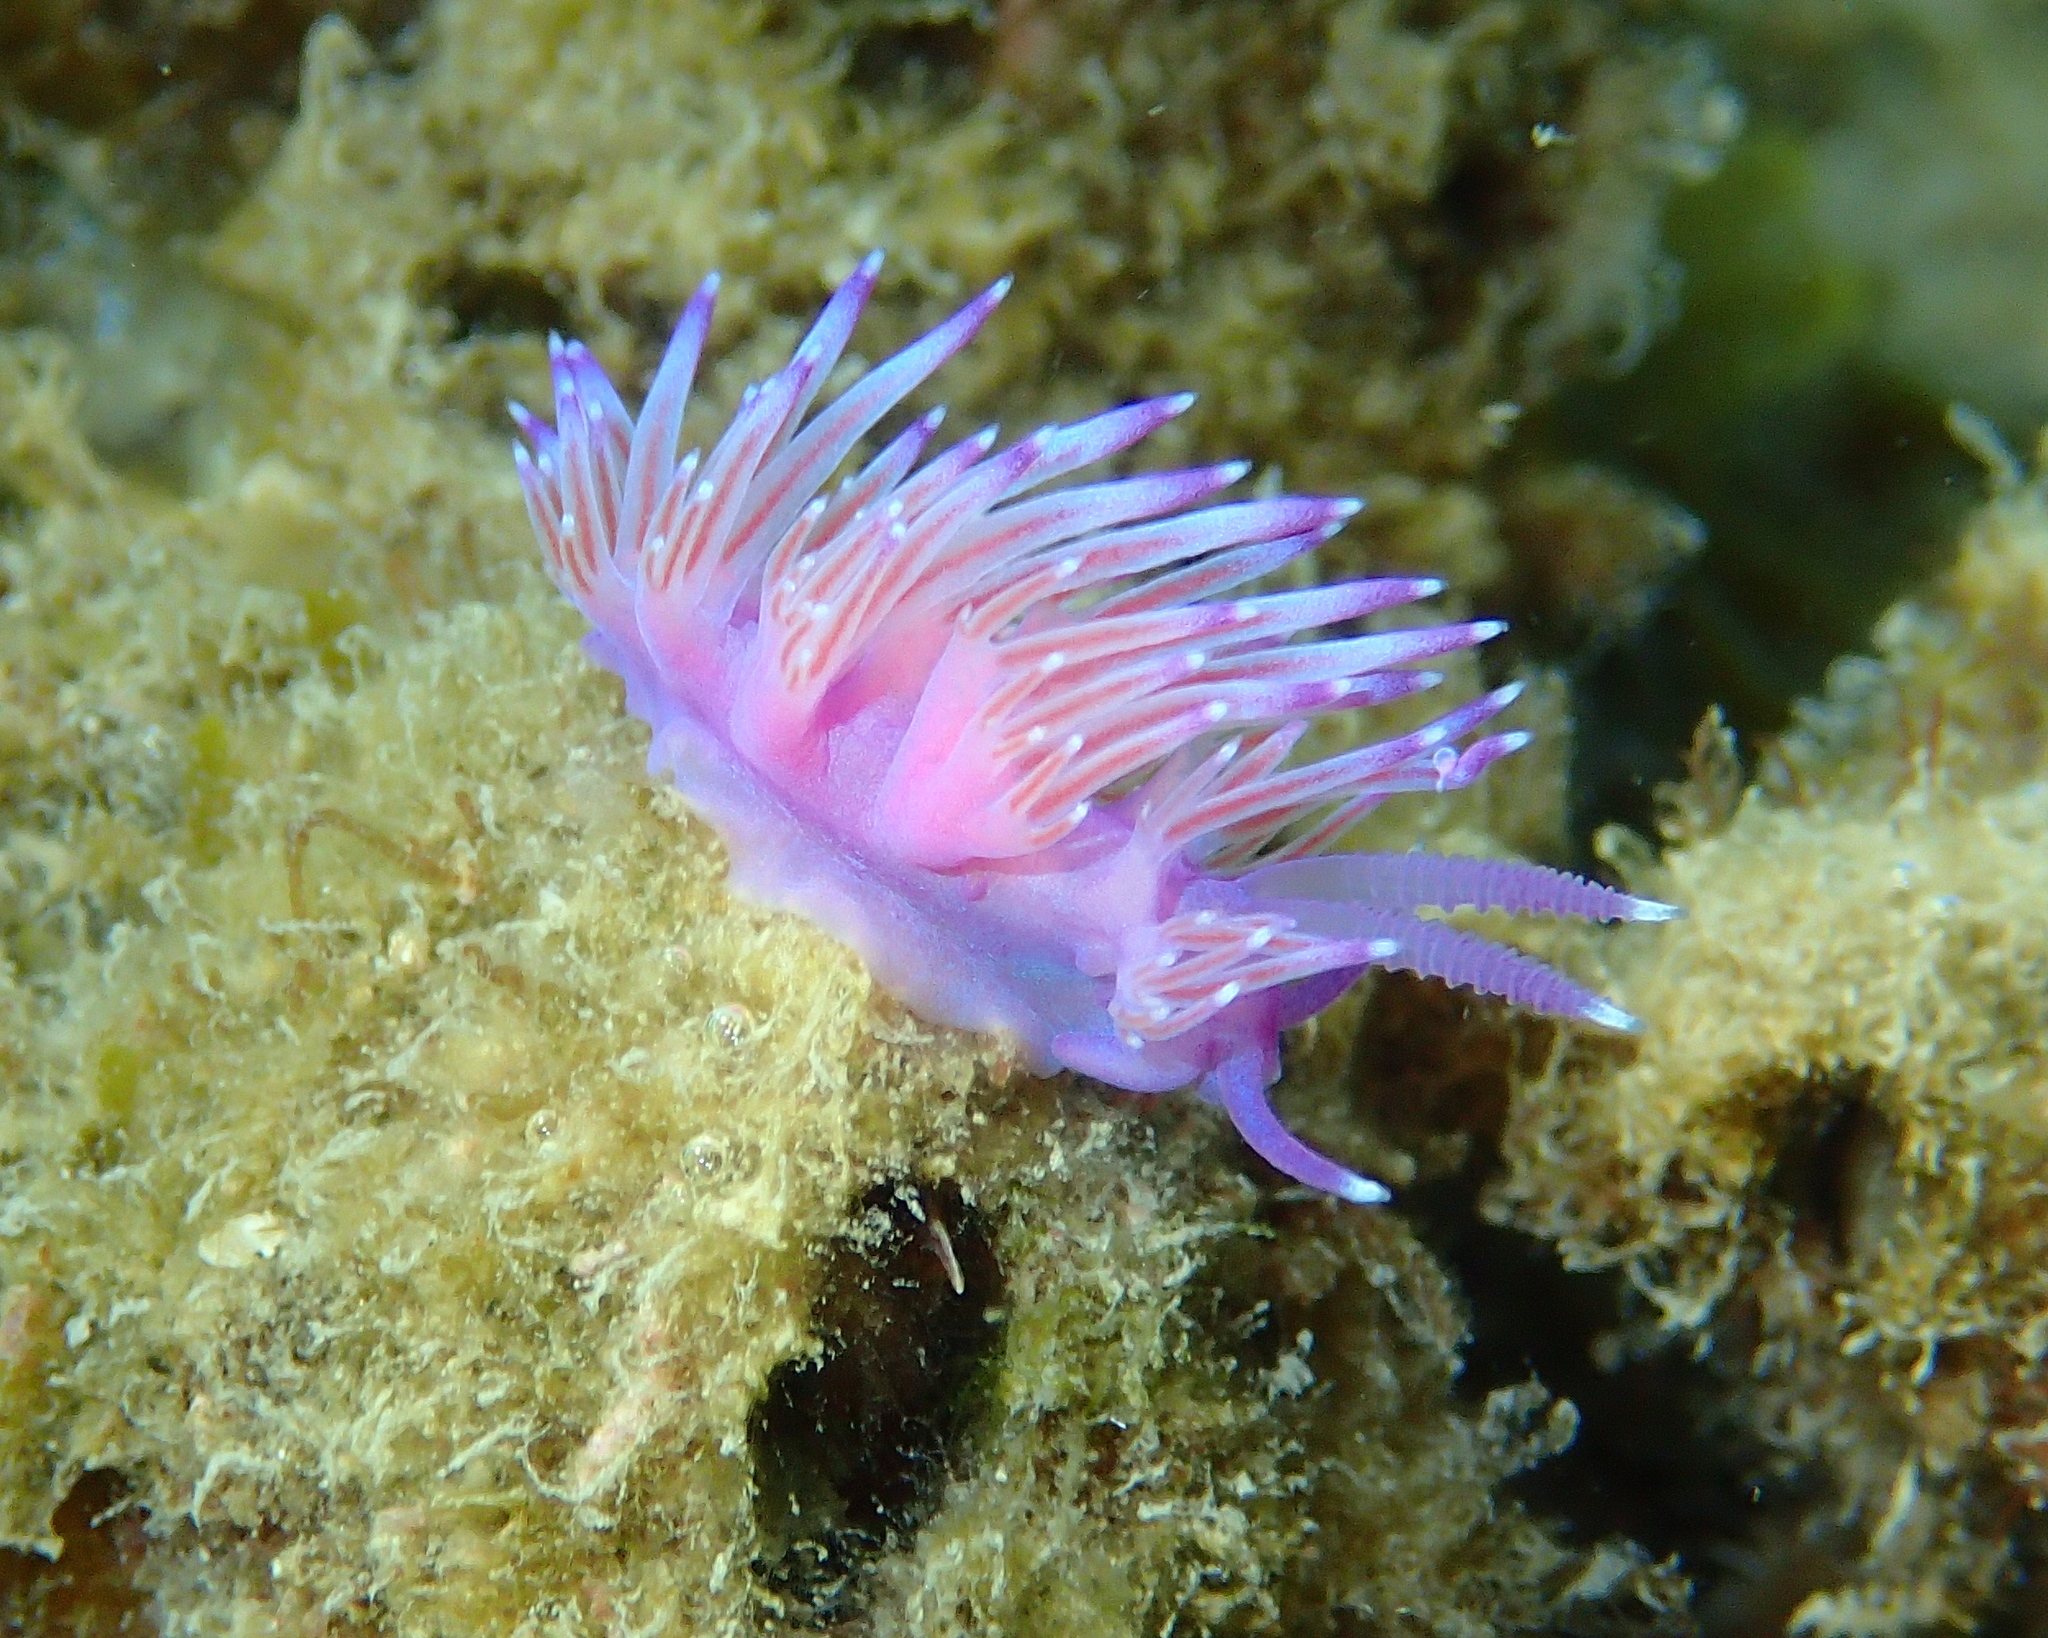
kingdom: Animalia
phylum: Mollusca
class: Gastropoda
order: Nudibranchia
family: Flabellinidae
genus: Flabellina
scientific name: Flabellina affinis
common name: Mediterranean violet aeolid
